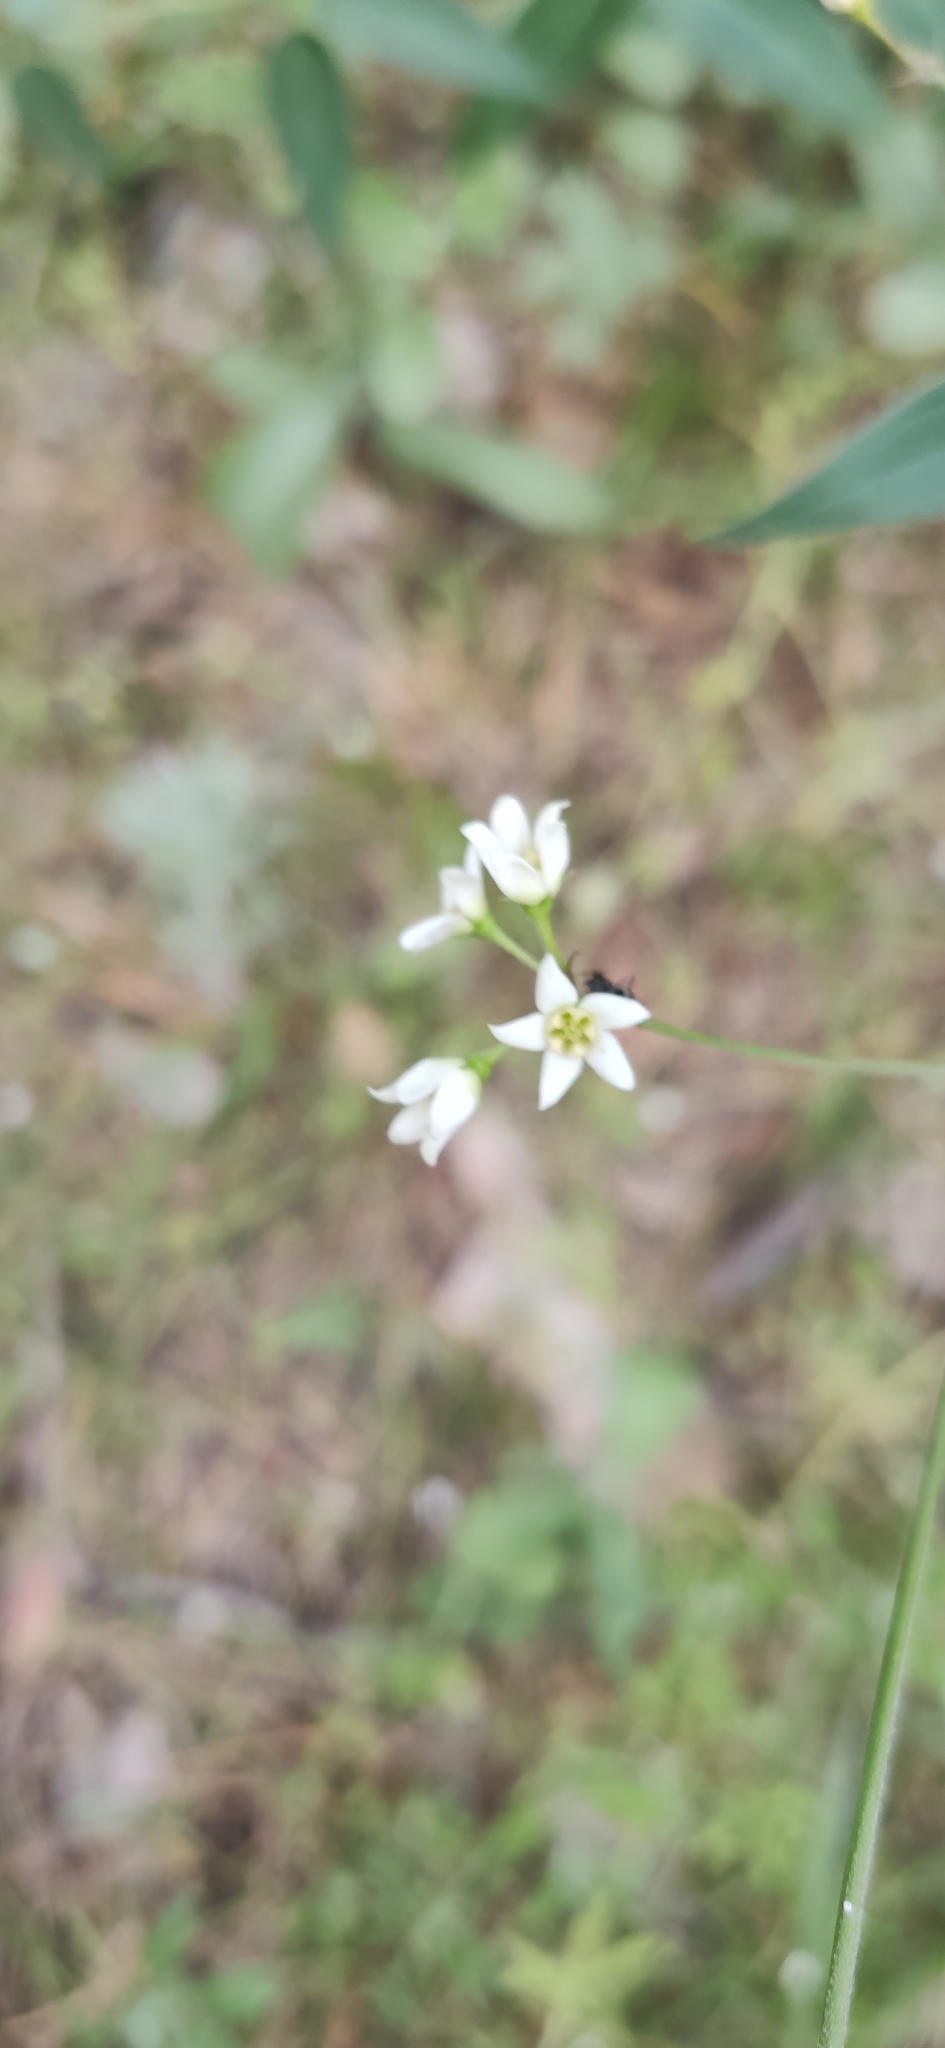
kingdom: Plantae
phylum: Tracheophyta
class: Magnoliopsida
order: Gentianales
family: Apocynaceae
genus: Vincetoxicum
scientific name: Vincetoxicum hirundinaria
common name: White swallowwort
